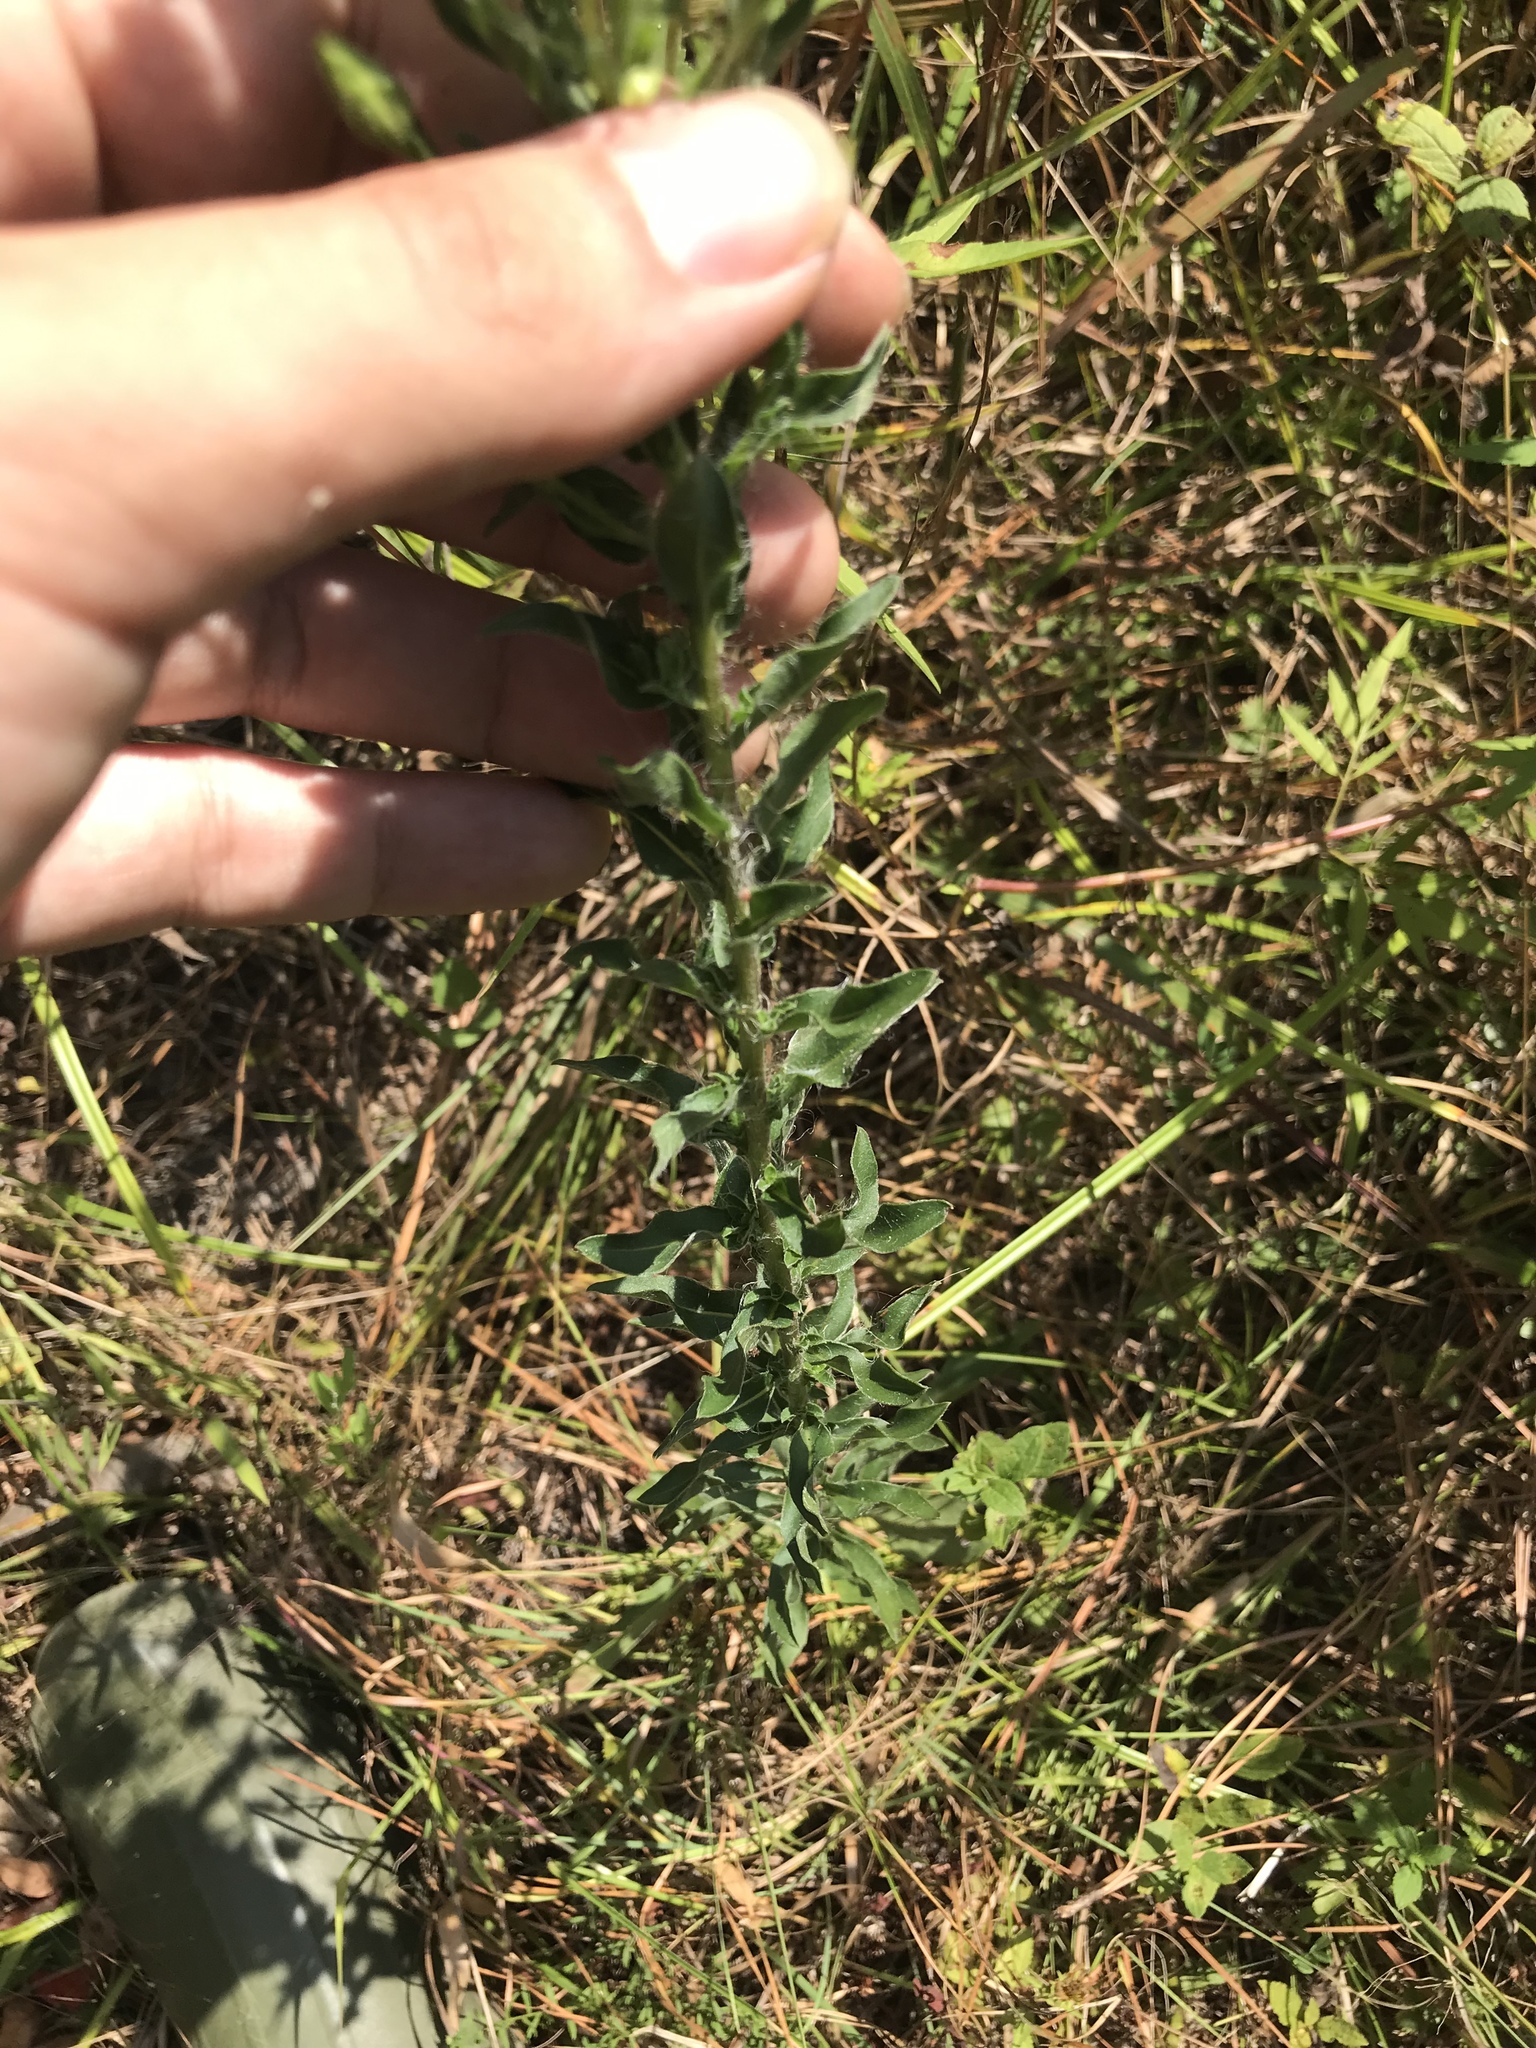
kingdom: Plantae
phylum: Tracheophyta
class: Magnoliopsida
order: Asterales
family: Asteraceae
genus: Chrysopsis
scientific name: Chrysopsis mariana
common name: Maryland golden-aster
